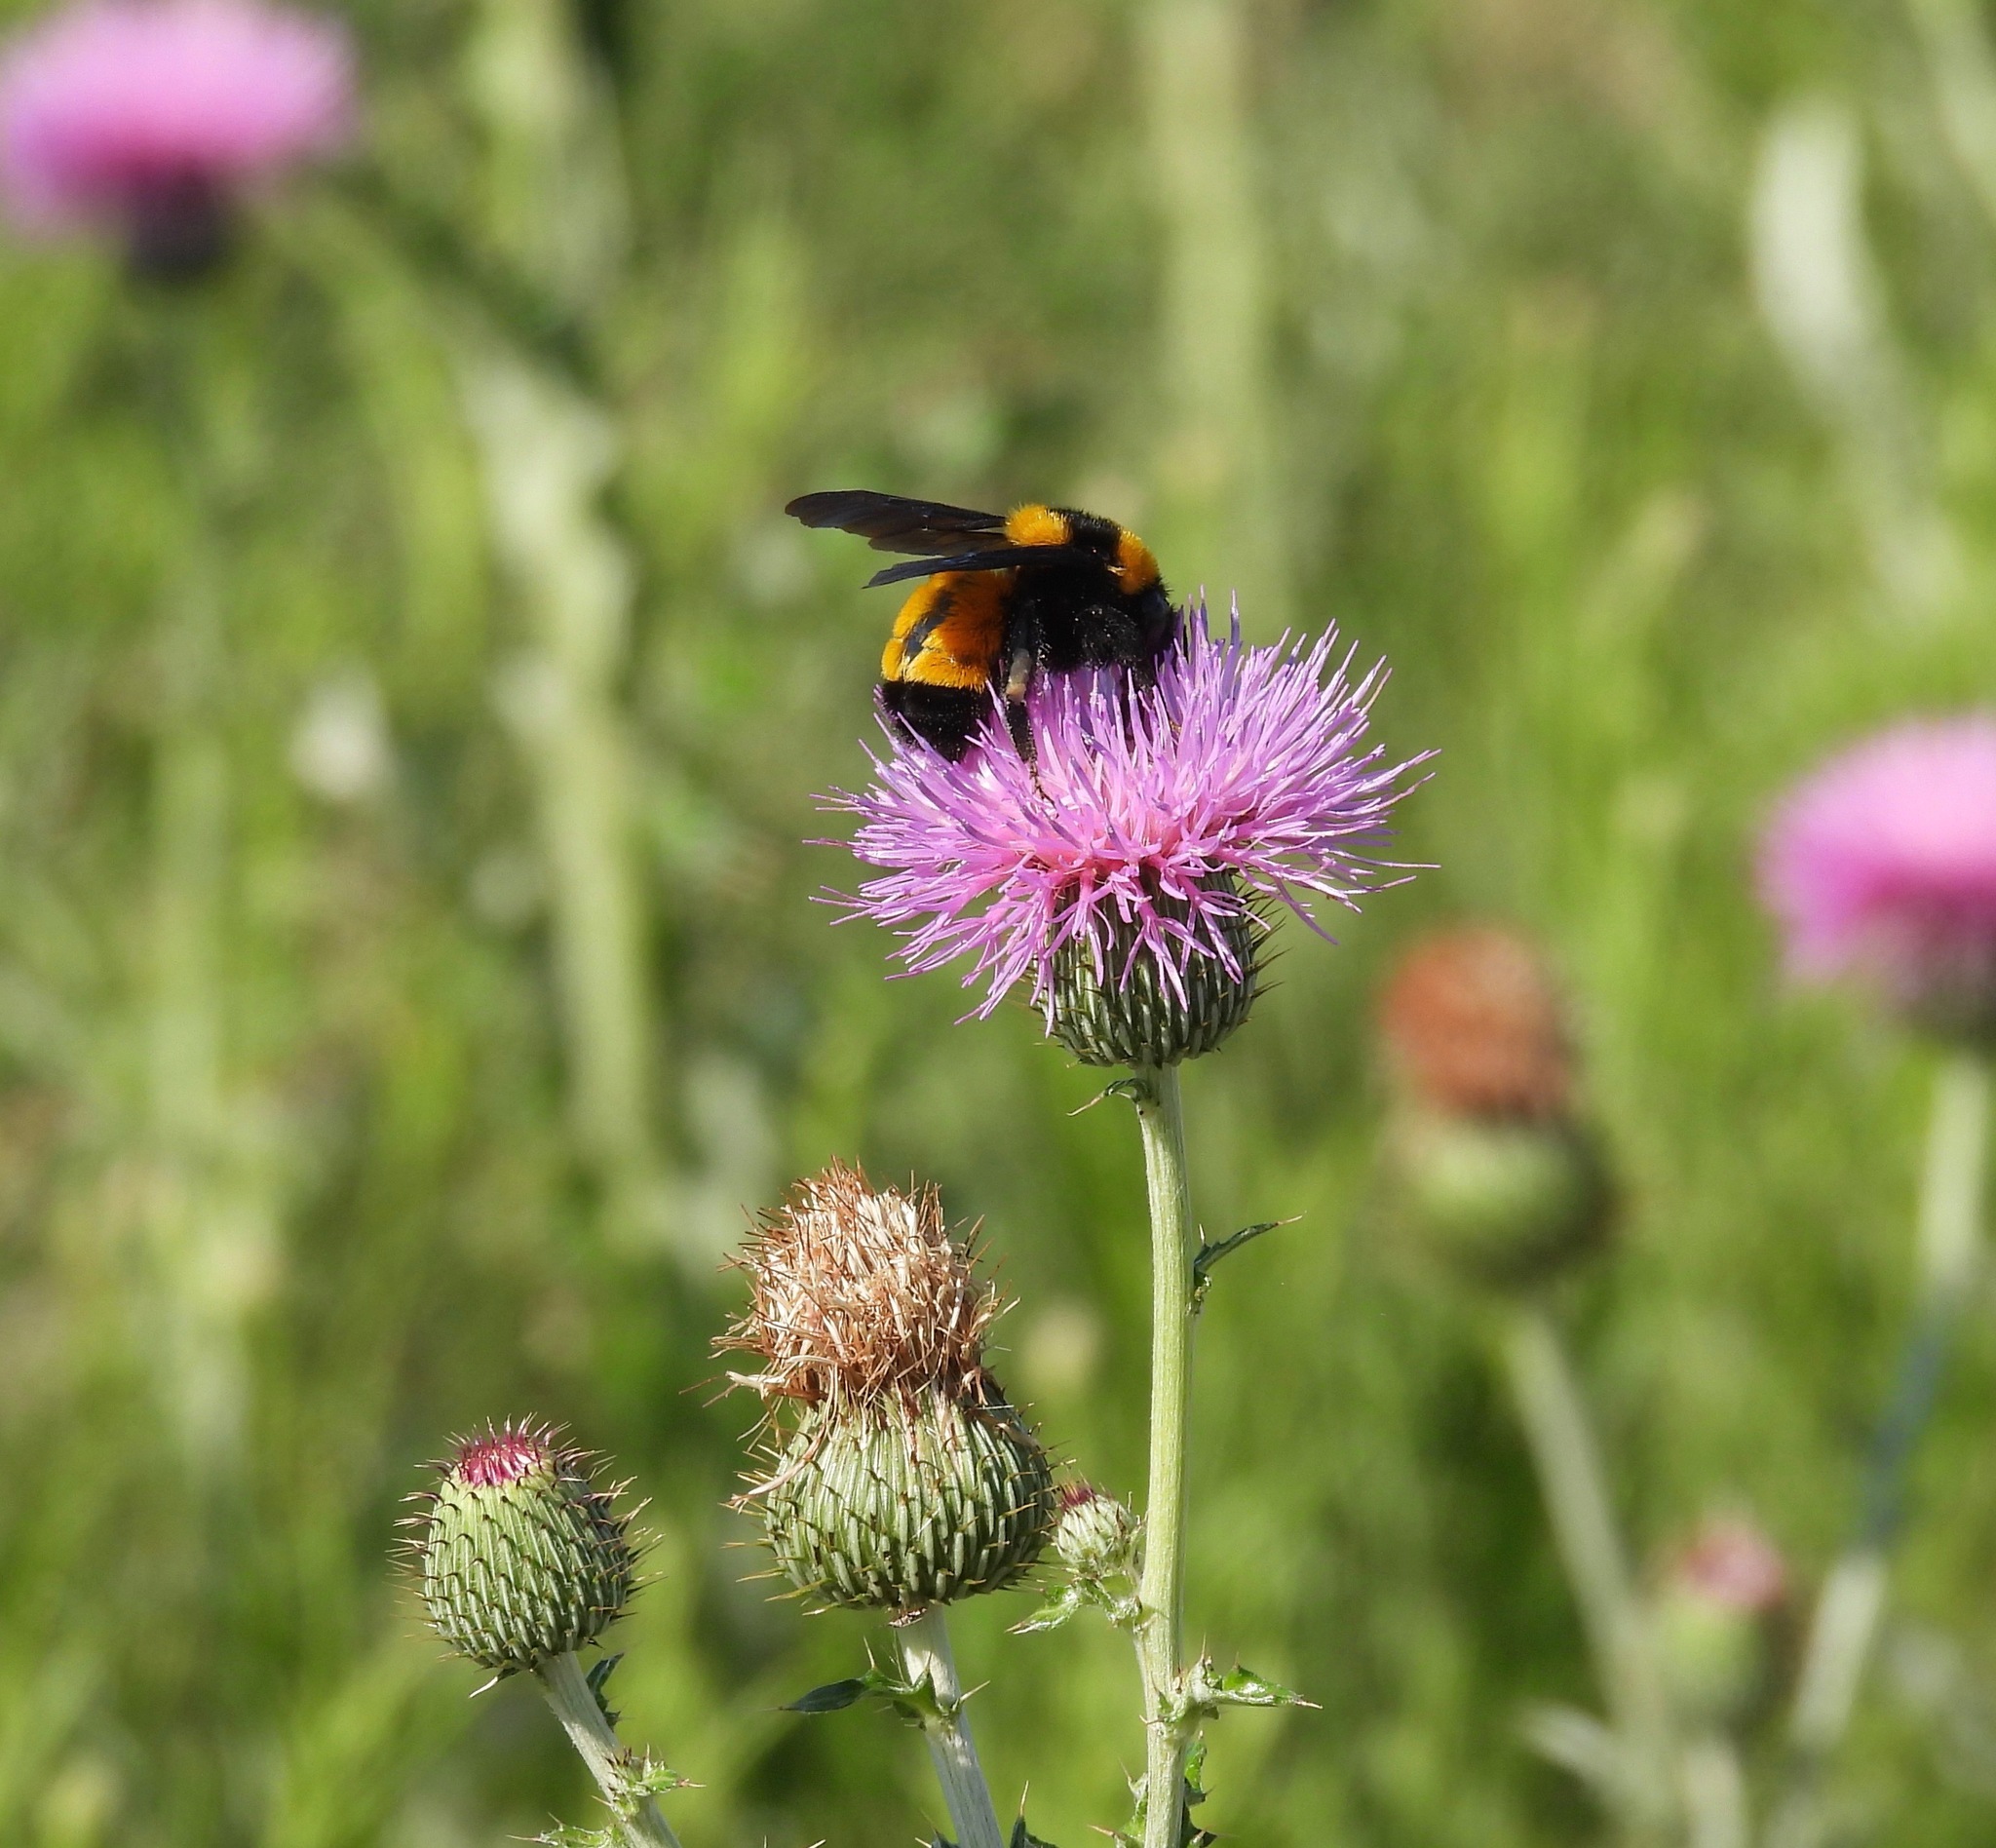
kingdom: Animalia
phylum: Arthropoda
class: Insecta
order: Hymenoptera
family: Apidae
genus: Bombus
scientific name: Bombus sonorus
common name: Sonoran bumble bee
